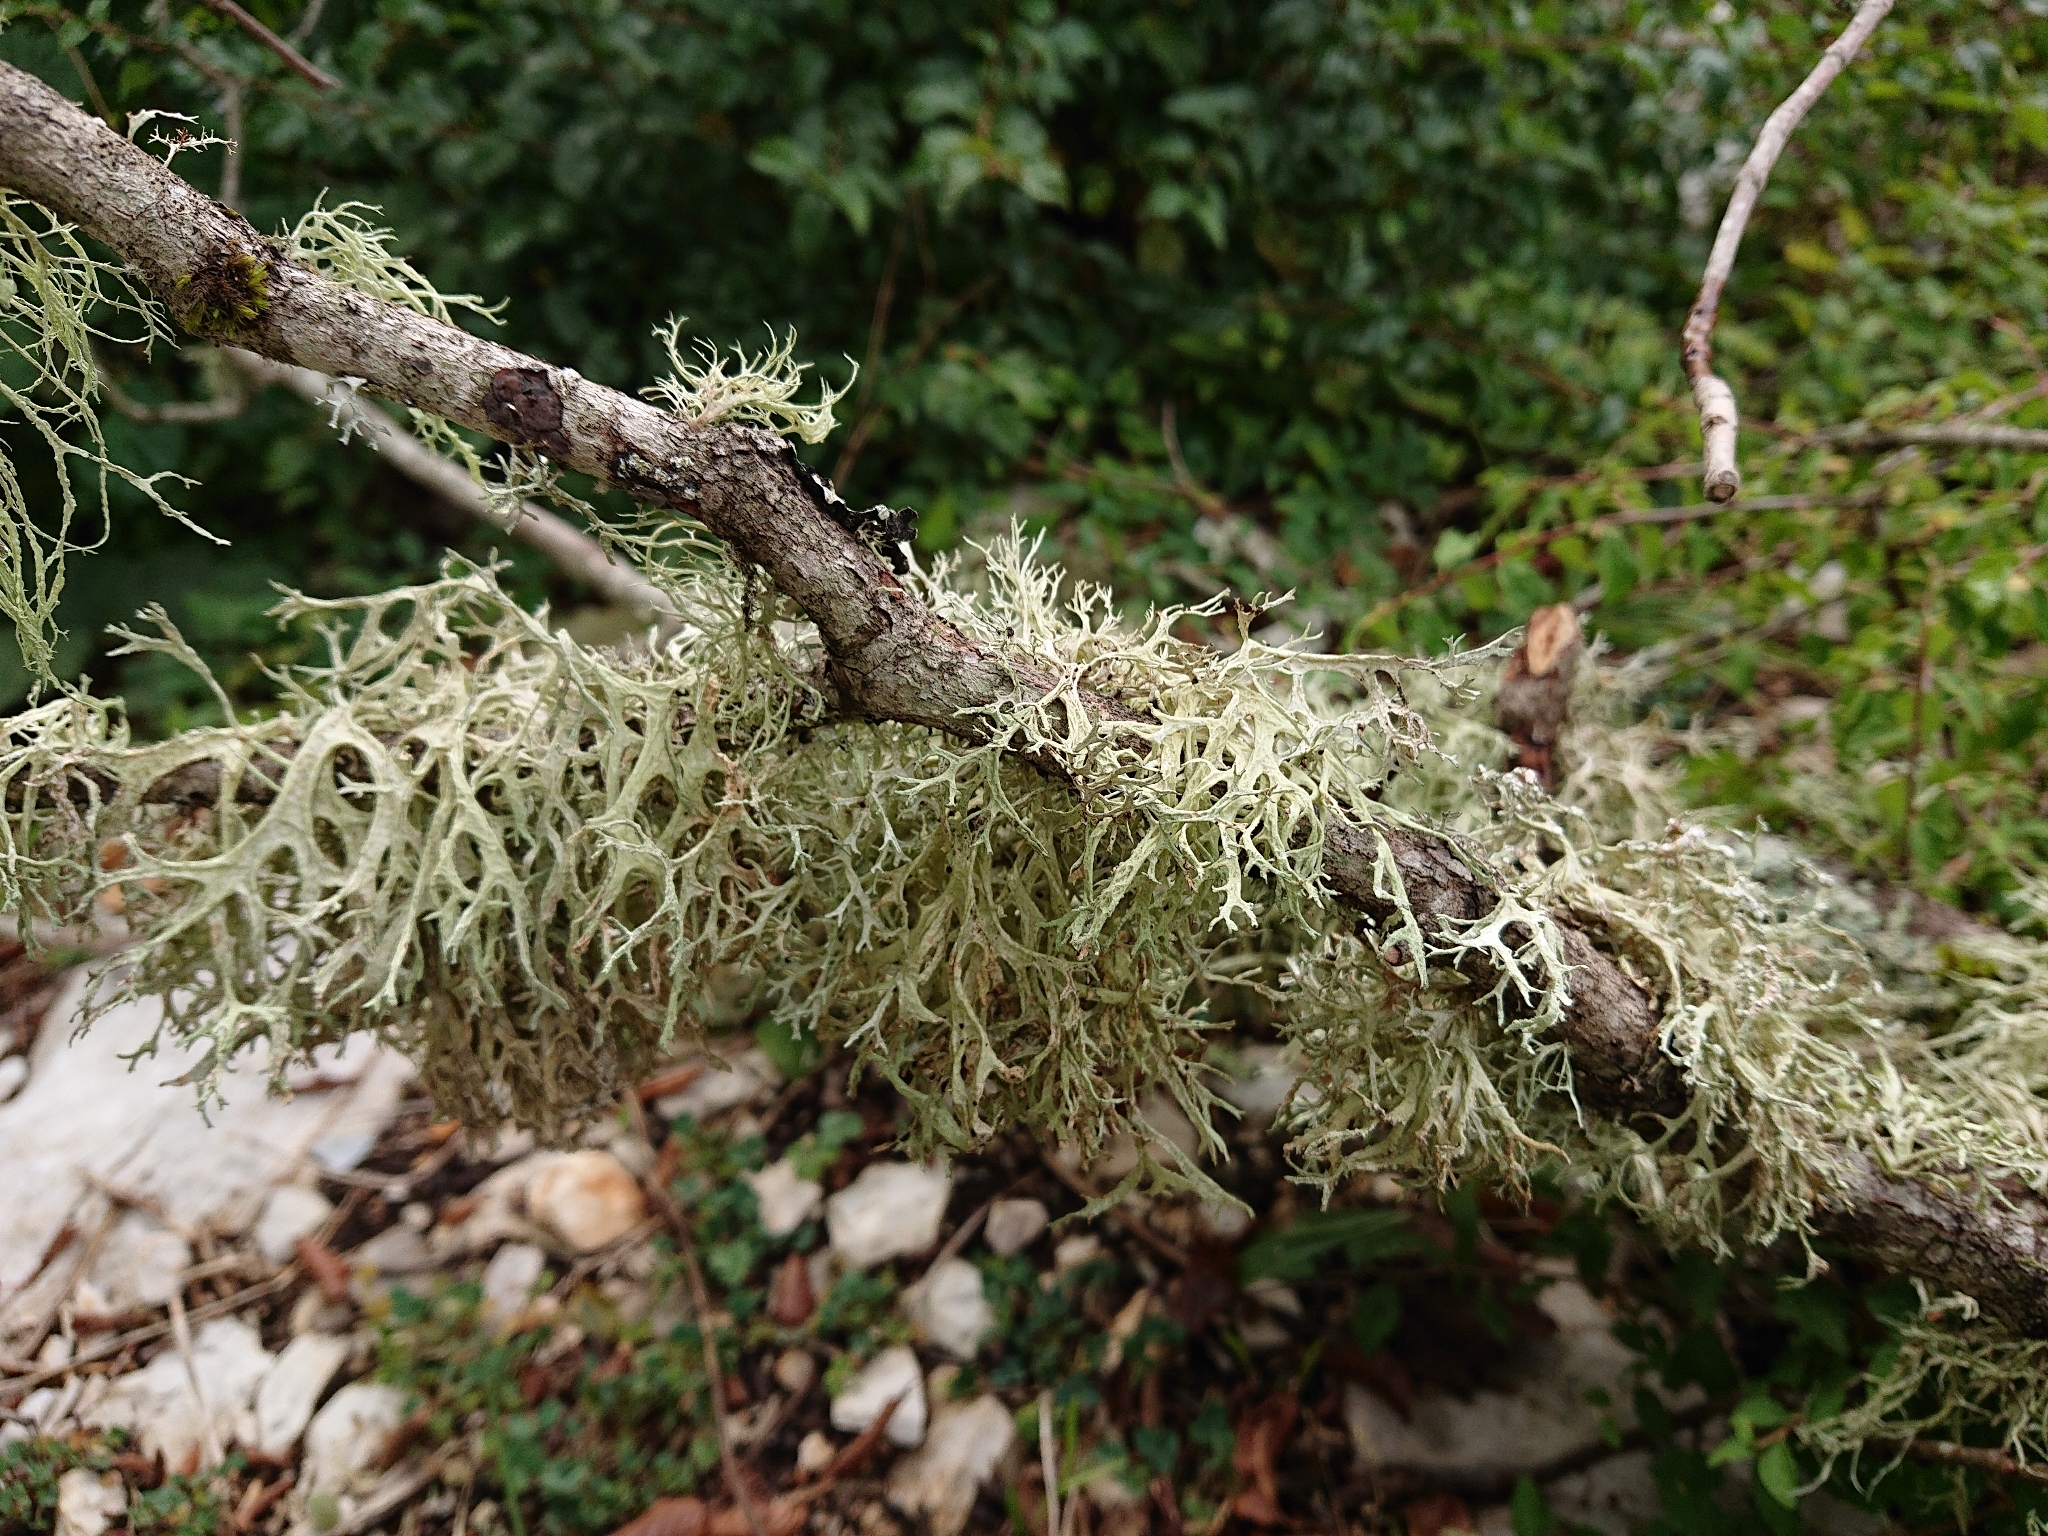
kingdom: Fungi
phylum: Ascomycota
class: Lecanoromycetes
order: Lecanorales
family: Parmeliaceae
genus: Evernia
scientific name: Evernia prunastri
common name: Oak moss
